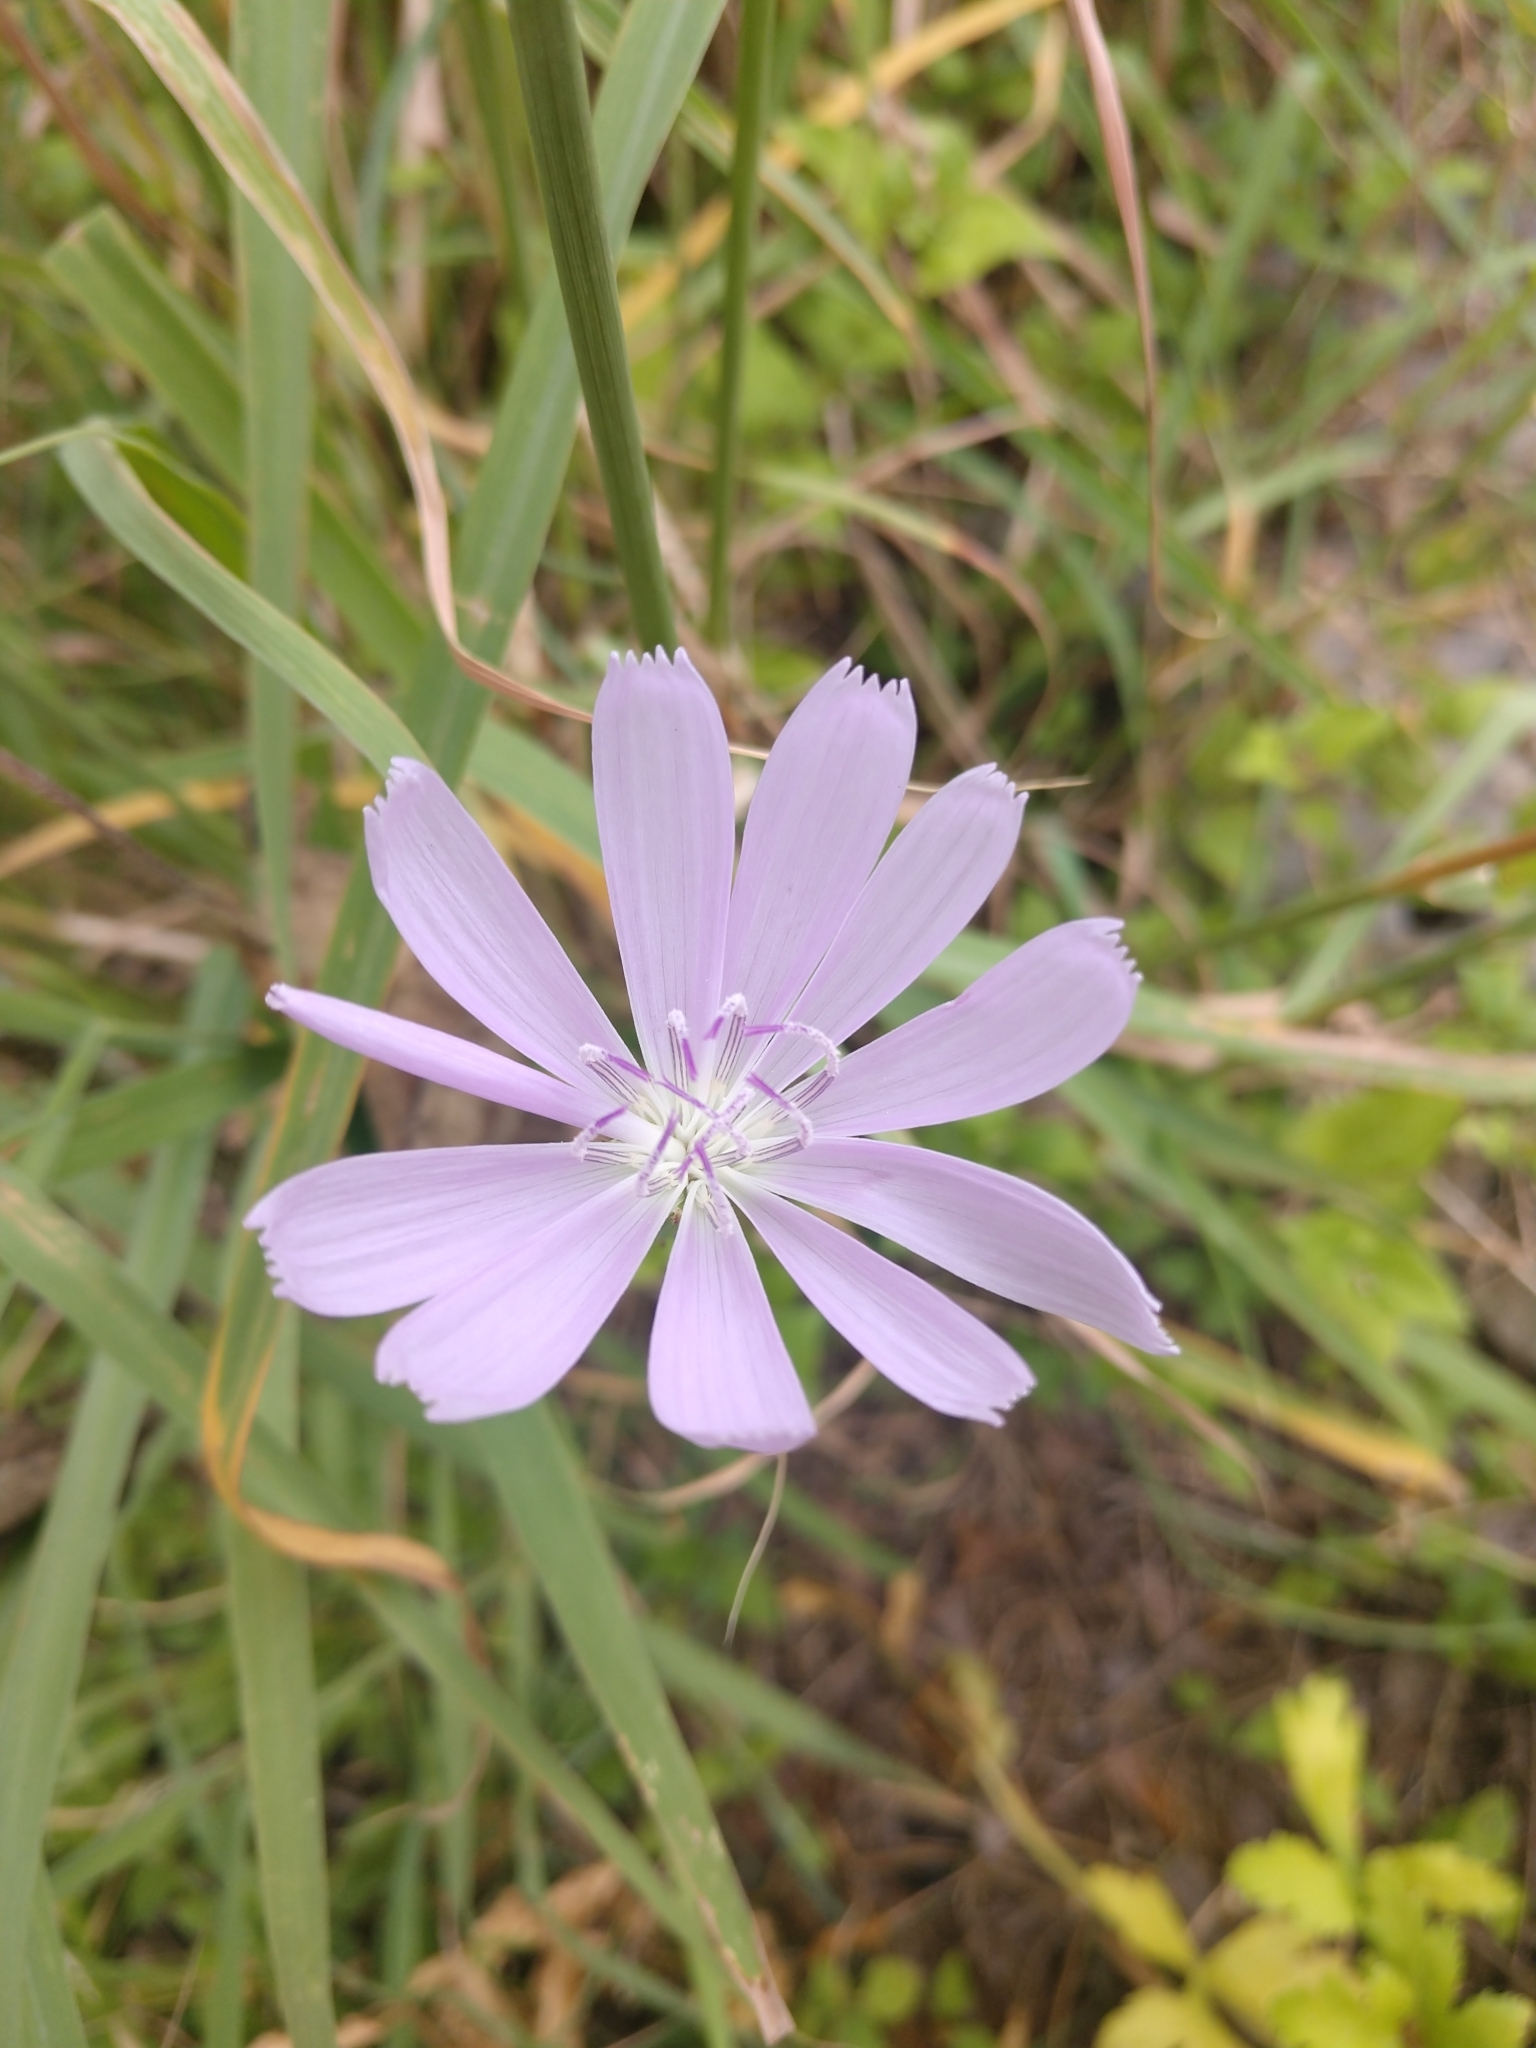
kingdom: Plantae
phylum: Tracheophyta
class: Magnoliopsida
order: Asterales
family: Asteraceae
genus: Lygodesmia
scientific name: Lygodesmia texana
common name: Texas skeleton-plant
